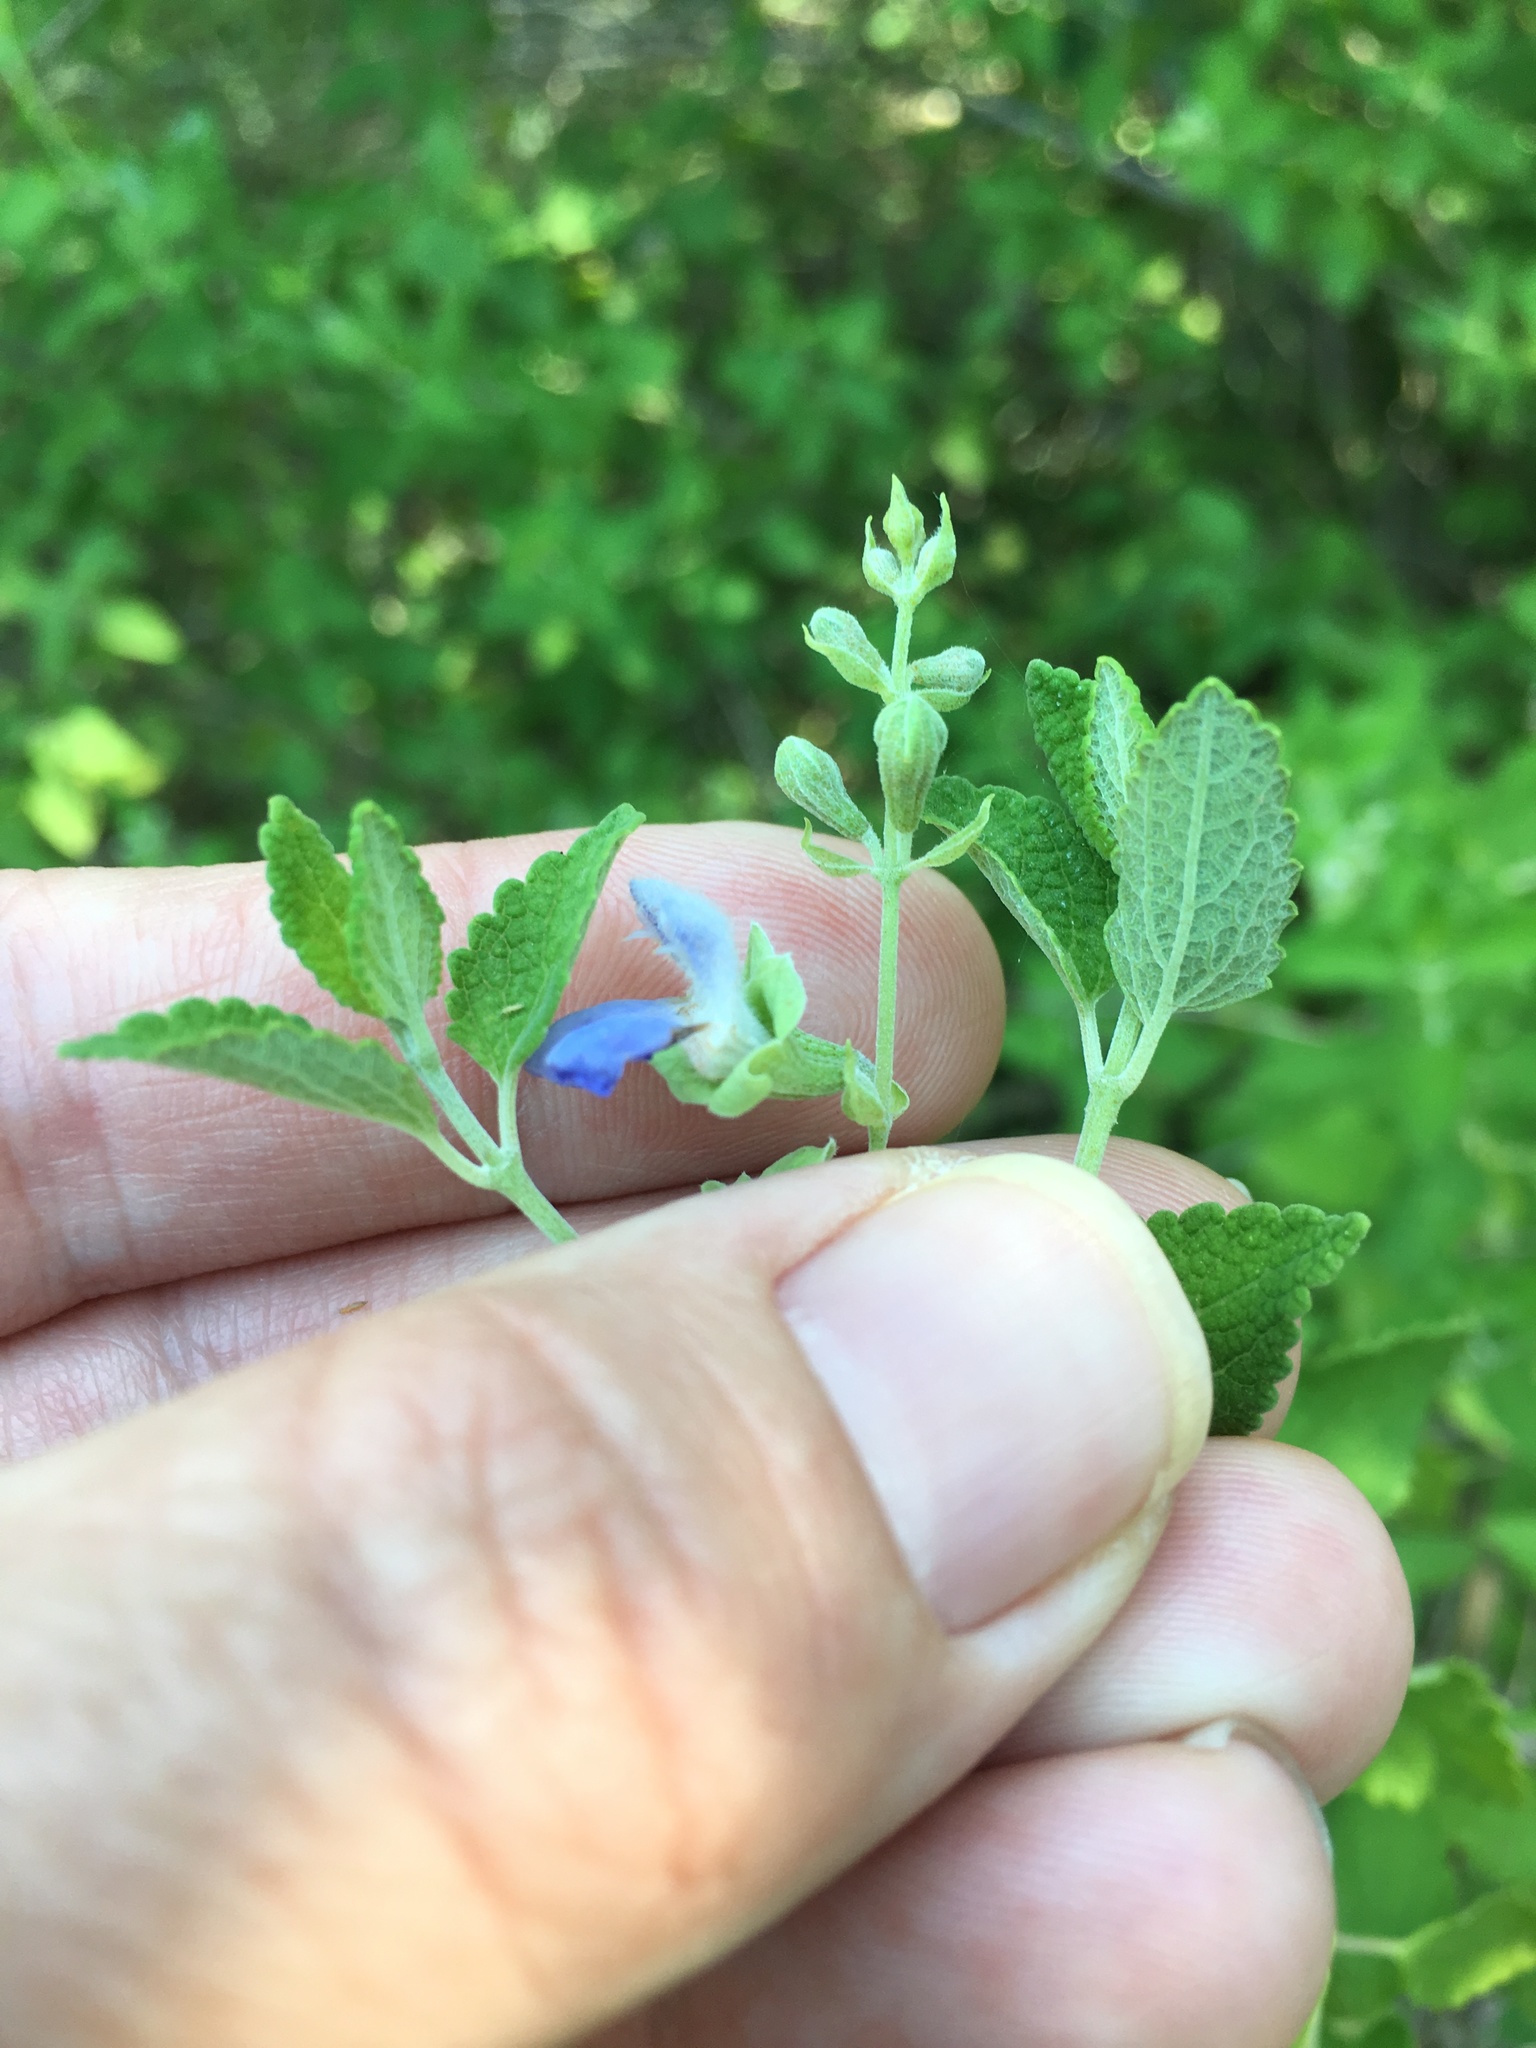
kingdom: Plantae
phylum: Tracheophyta
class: Magnoliopsida
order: Lamiales
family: Lamiaceae
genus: Salvia
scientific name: Salvia ballotiflora
